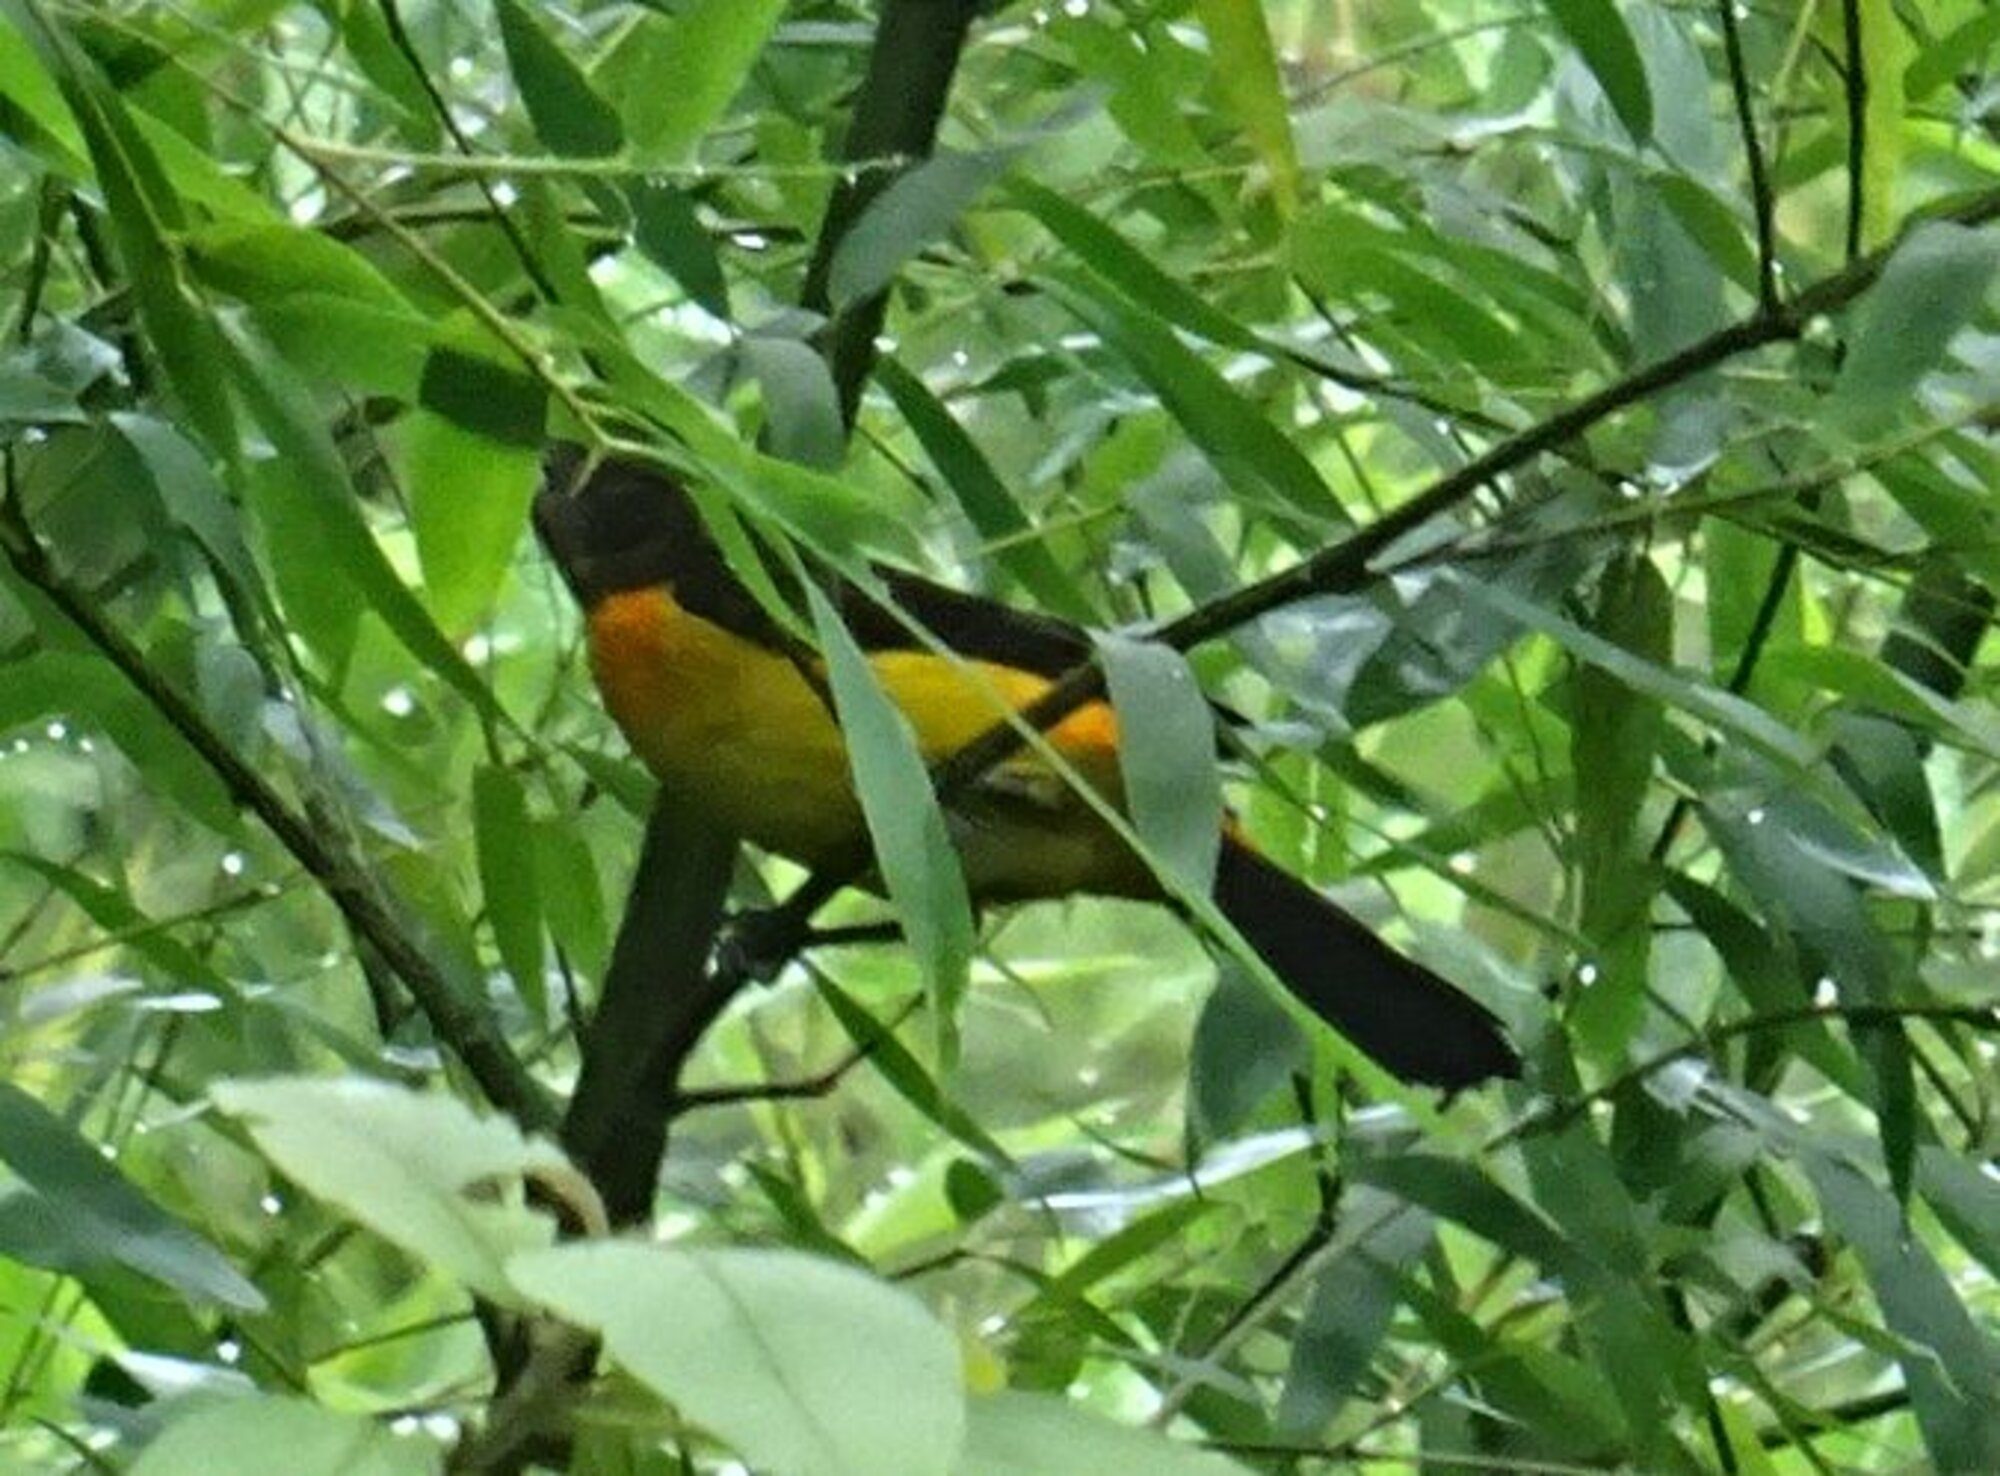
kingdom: Animalia
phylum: Chordata
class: Aves
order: Passeriformes
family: Thraupidae
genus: Ramphocelus
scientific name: Ramphocelus flammigerus
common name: Flame-rumped tanager
